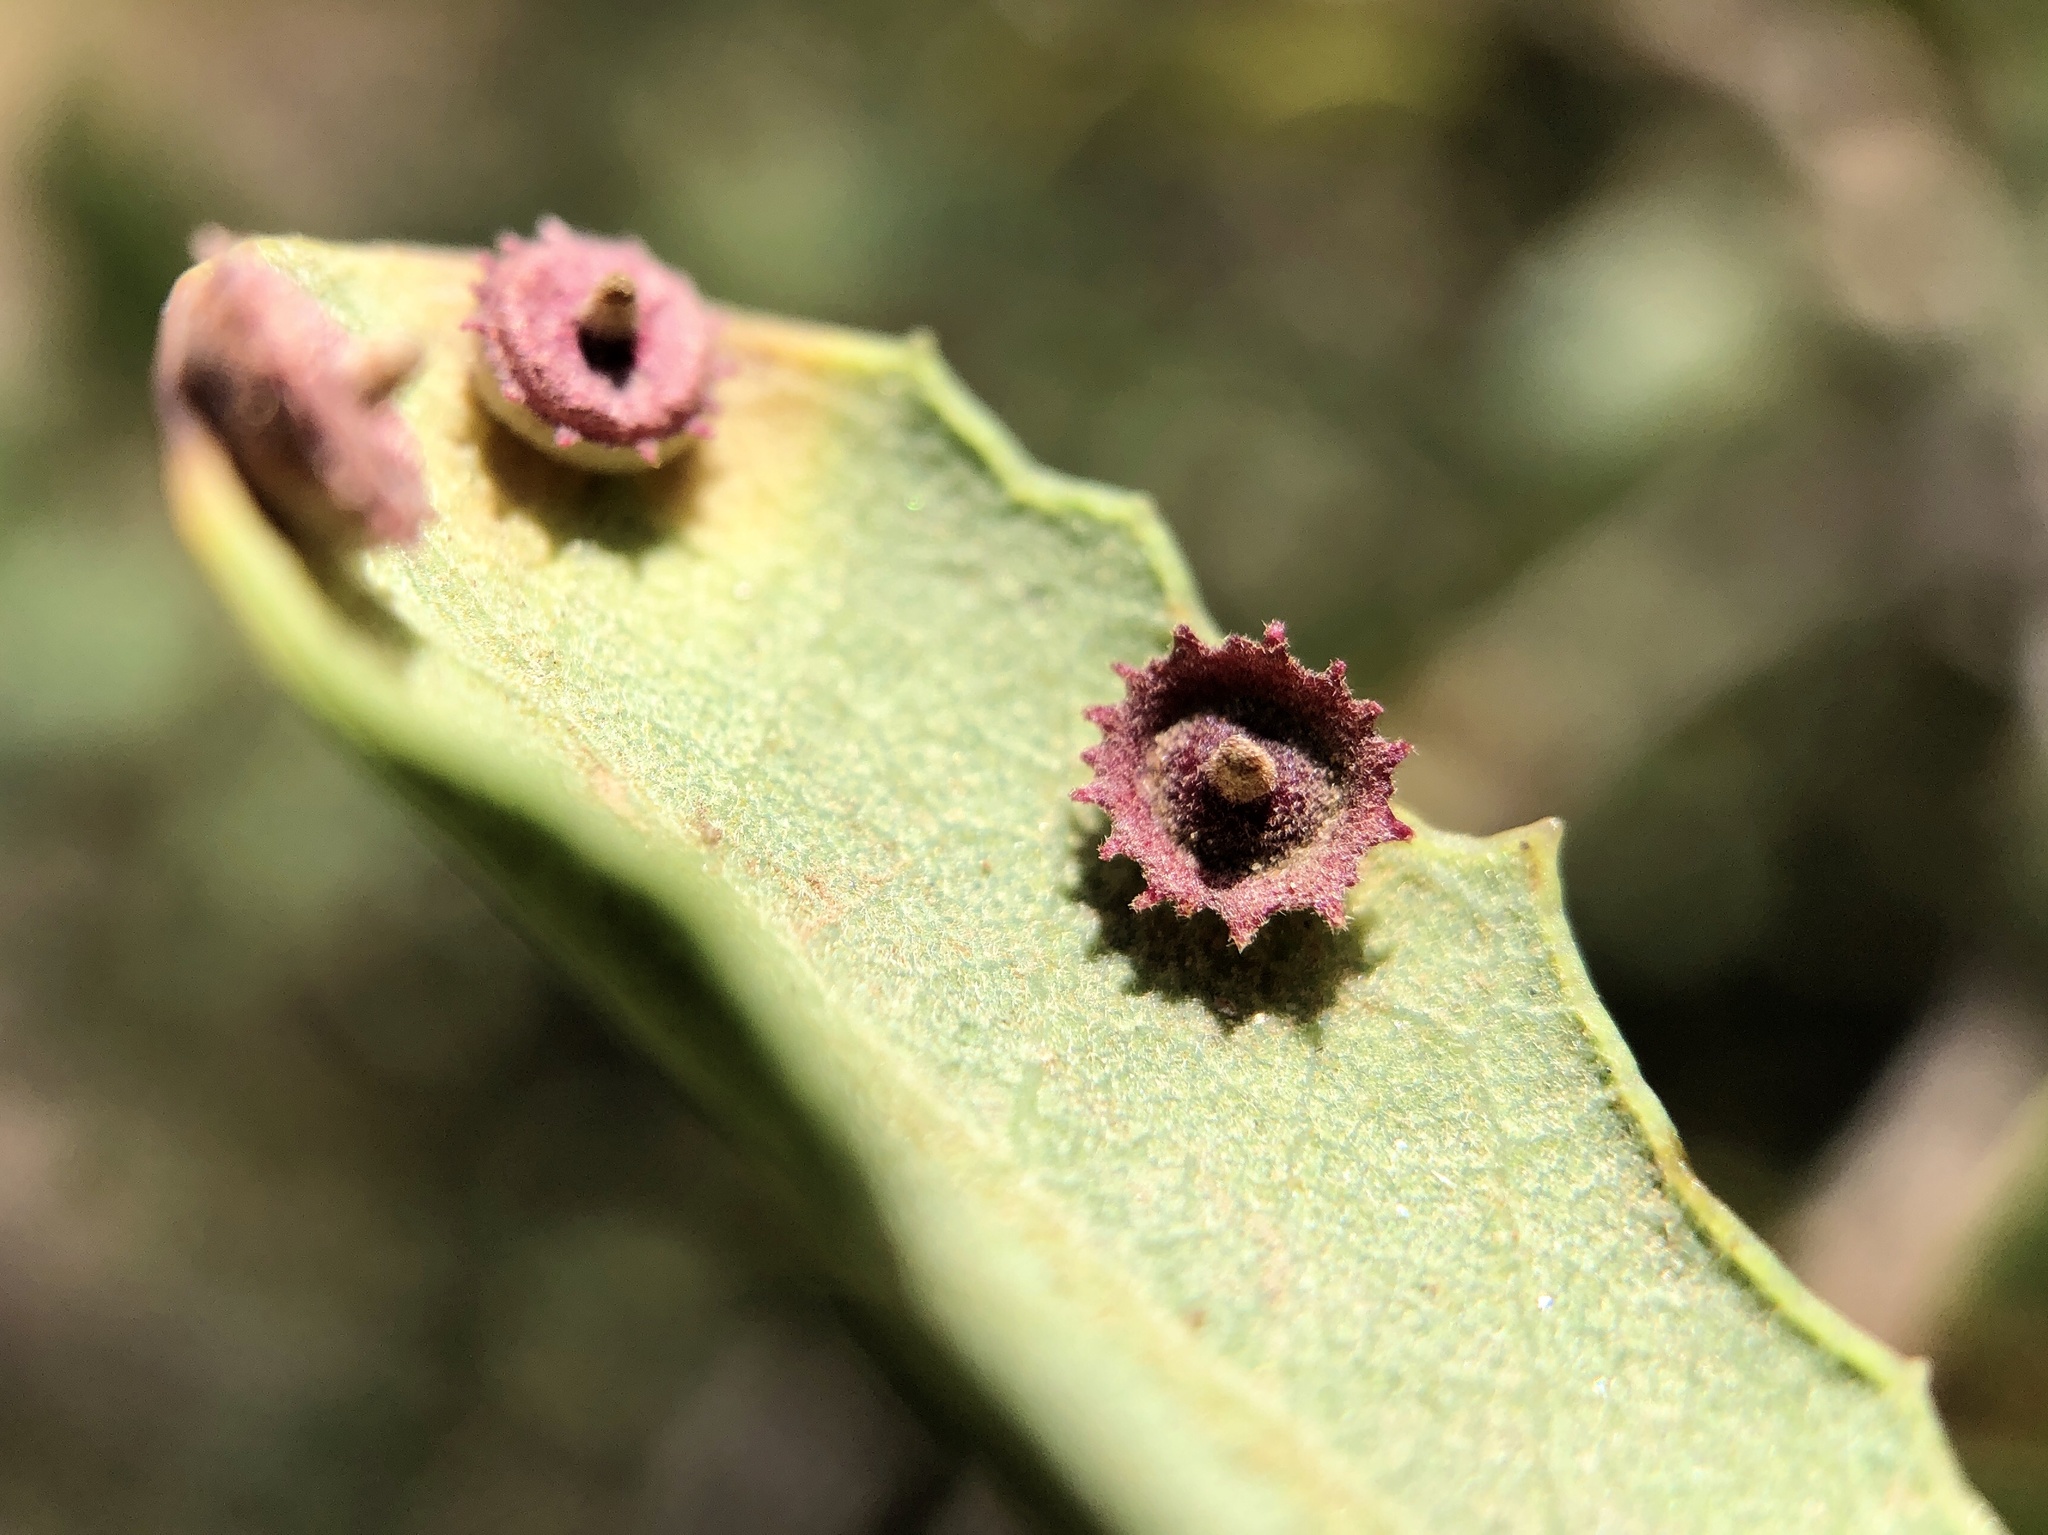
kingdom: Animalia
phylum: Arthropoda
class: Insecta
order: Hymenoptera
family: Cynipidae
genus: Andricus
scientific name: Andricus
